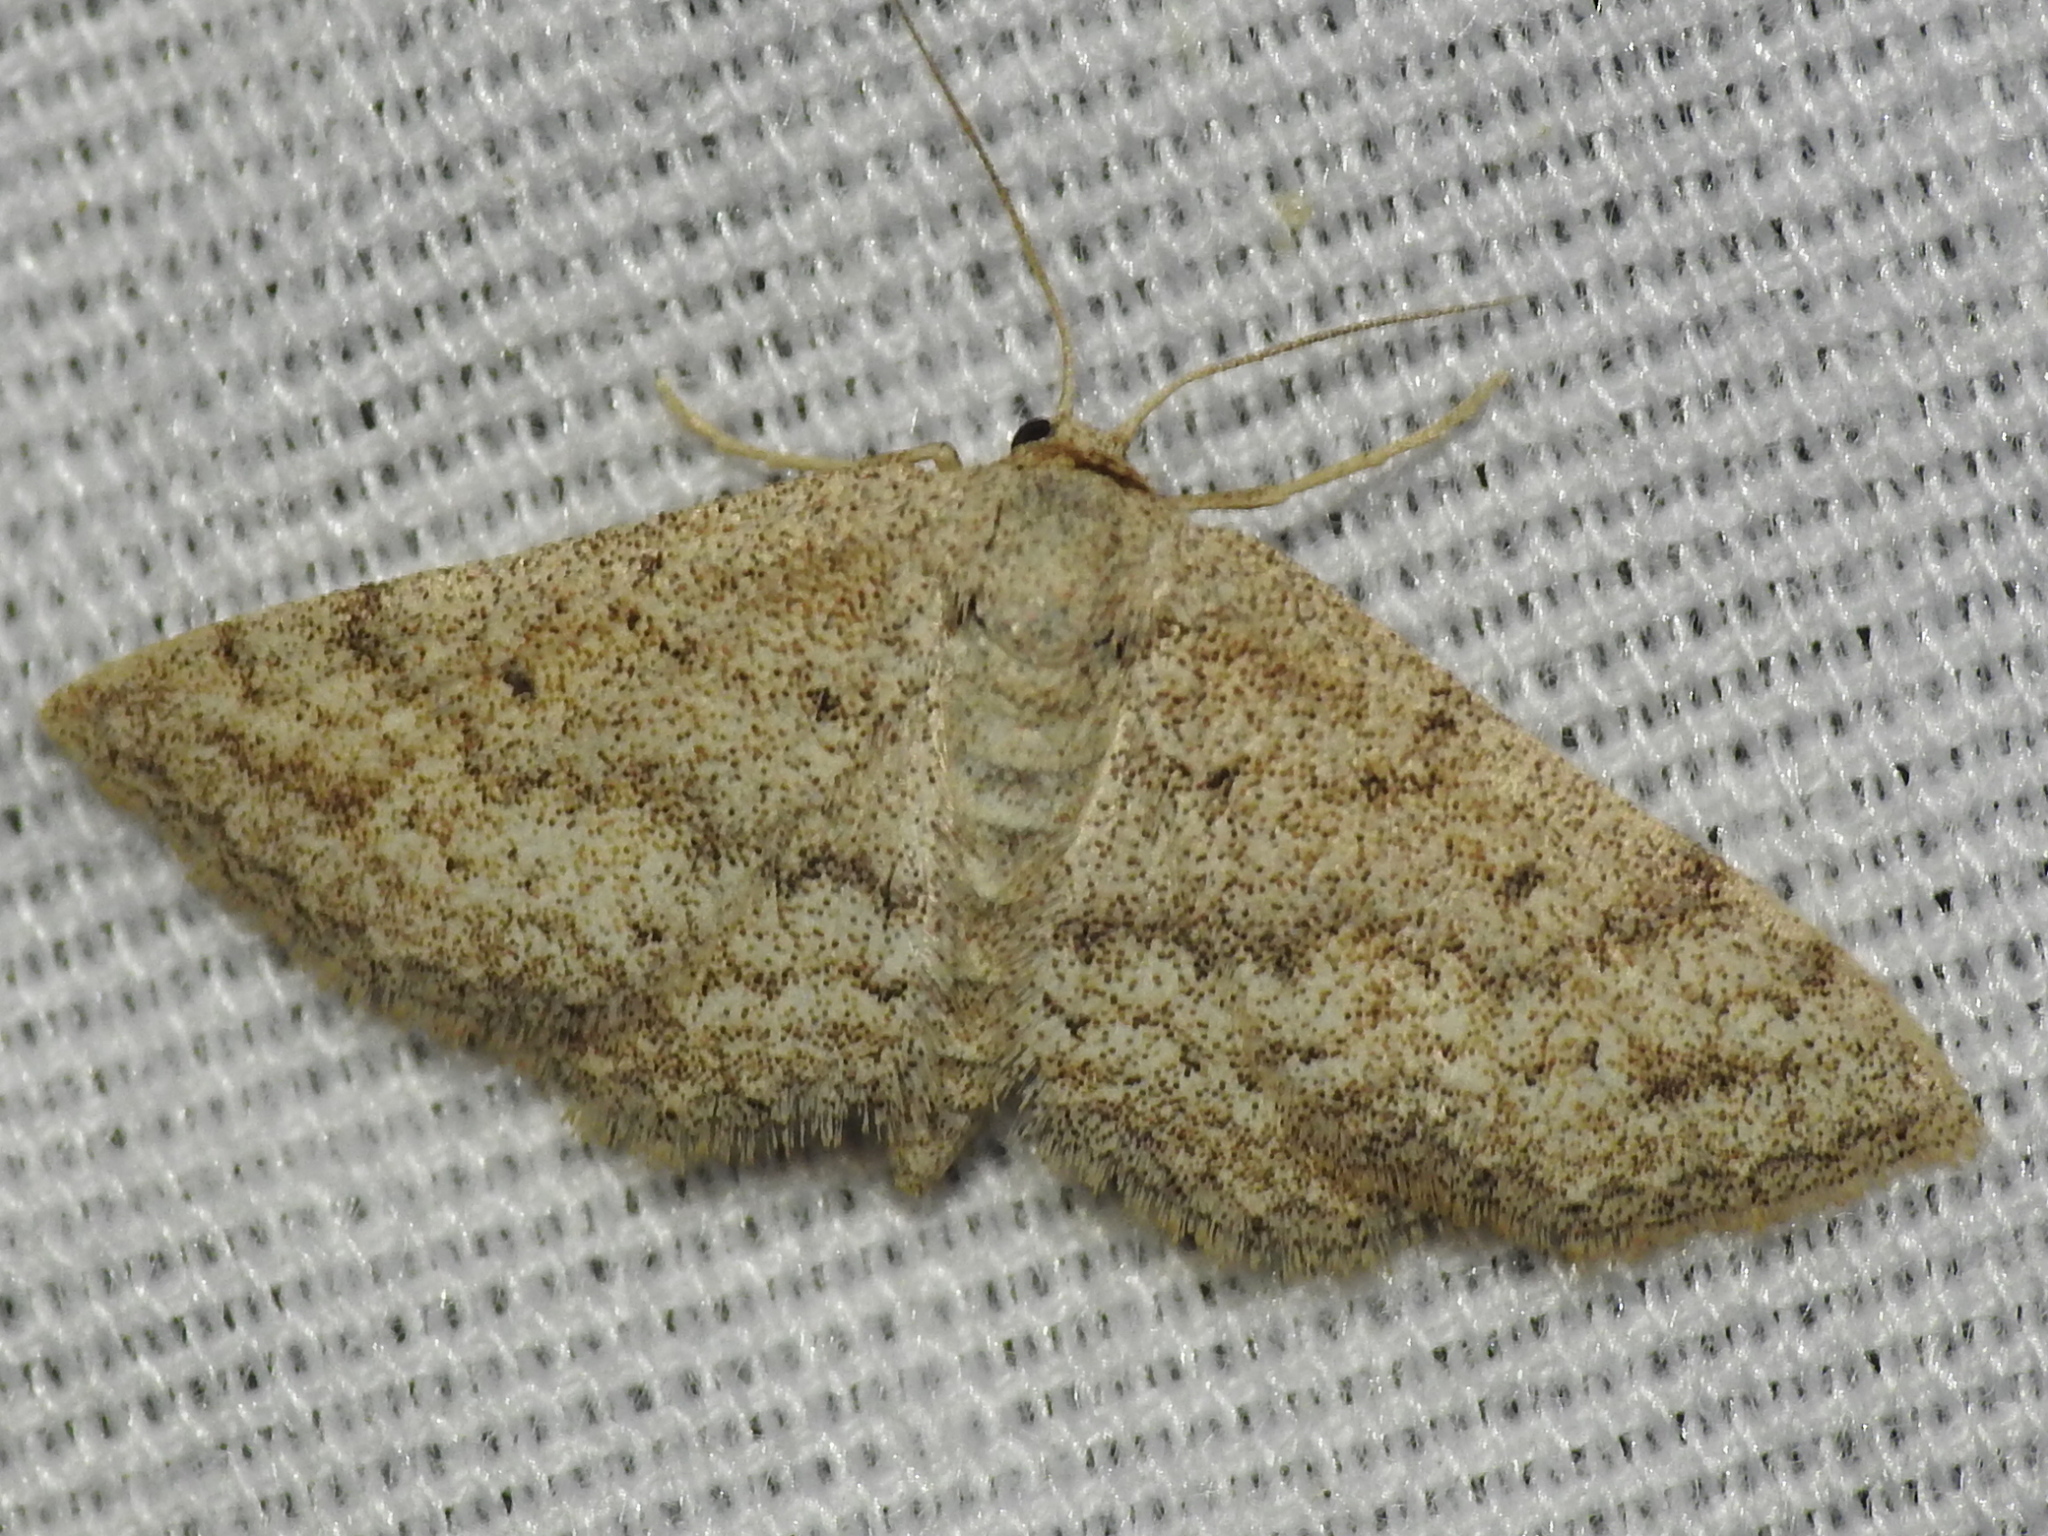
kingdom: Animalia
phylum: Arthropoda
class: Insecta
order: Lepidoptera
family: Geometridae
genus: Lobocleta
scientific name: Lobocleta ossularia
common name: Drab brown wave
